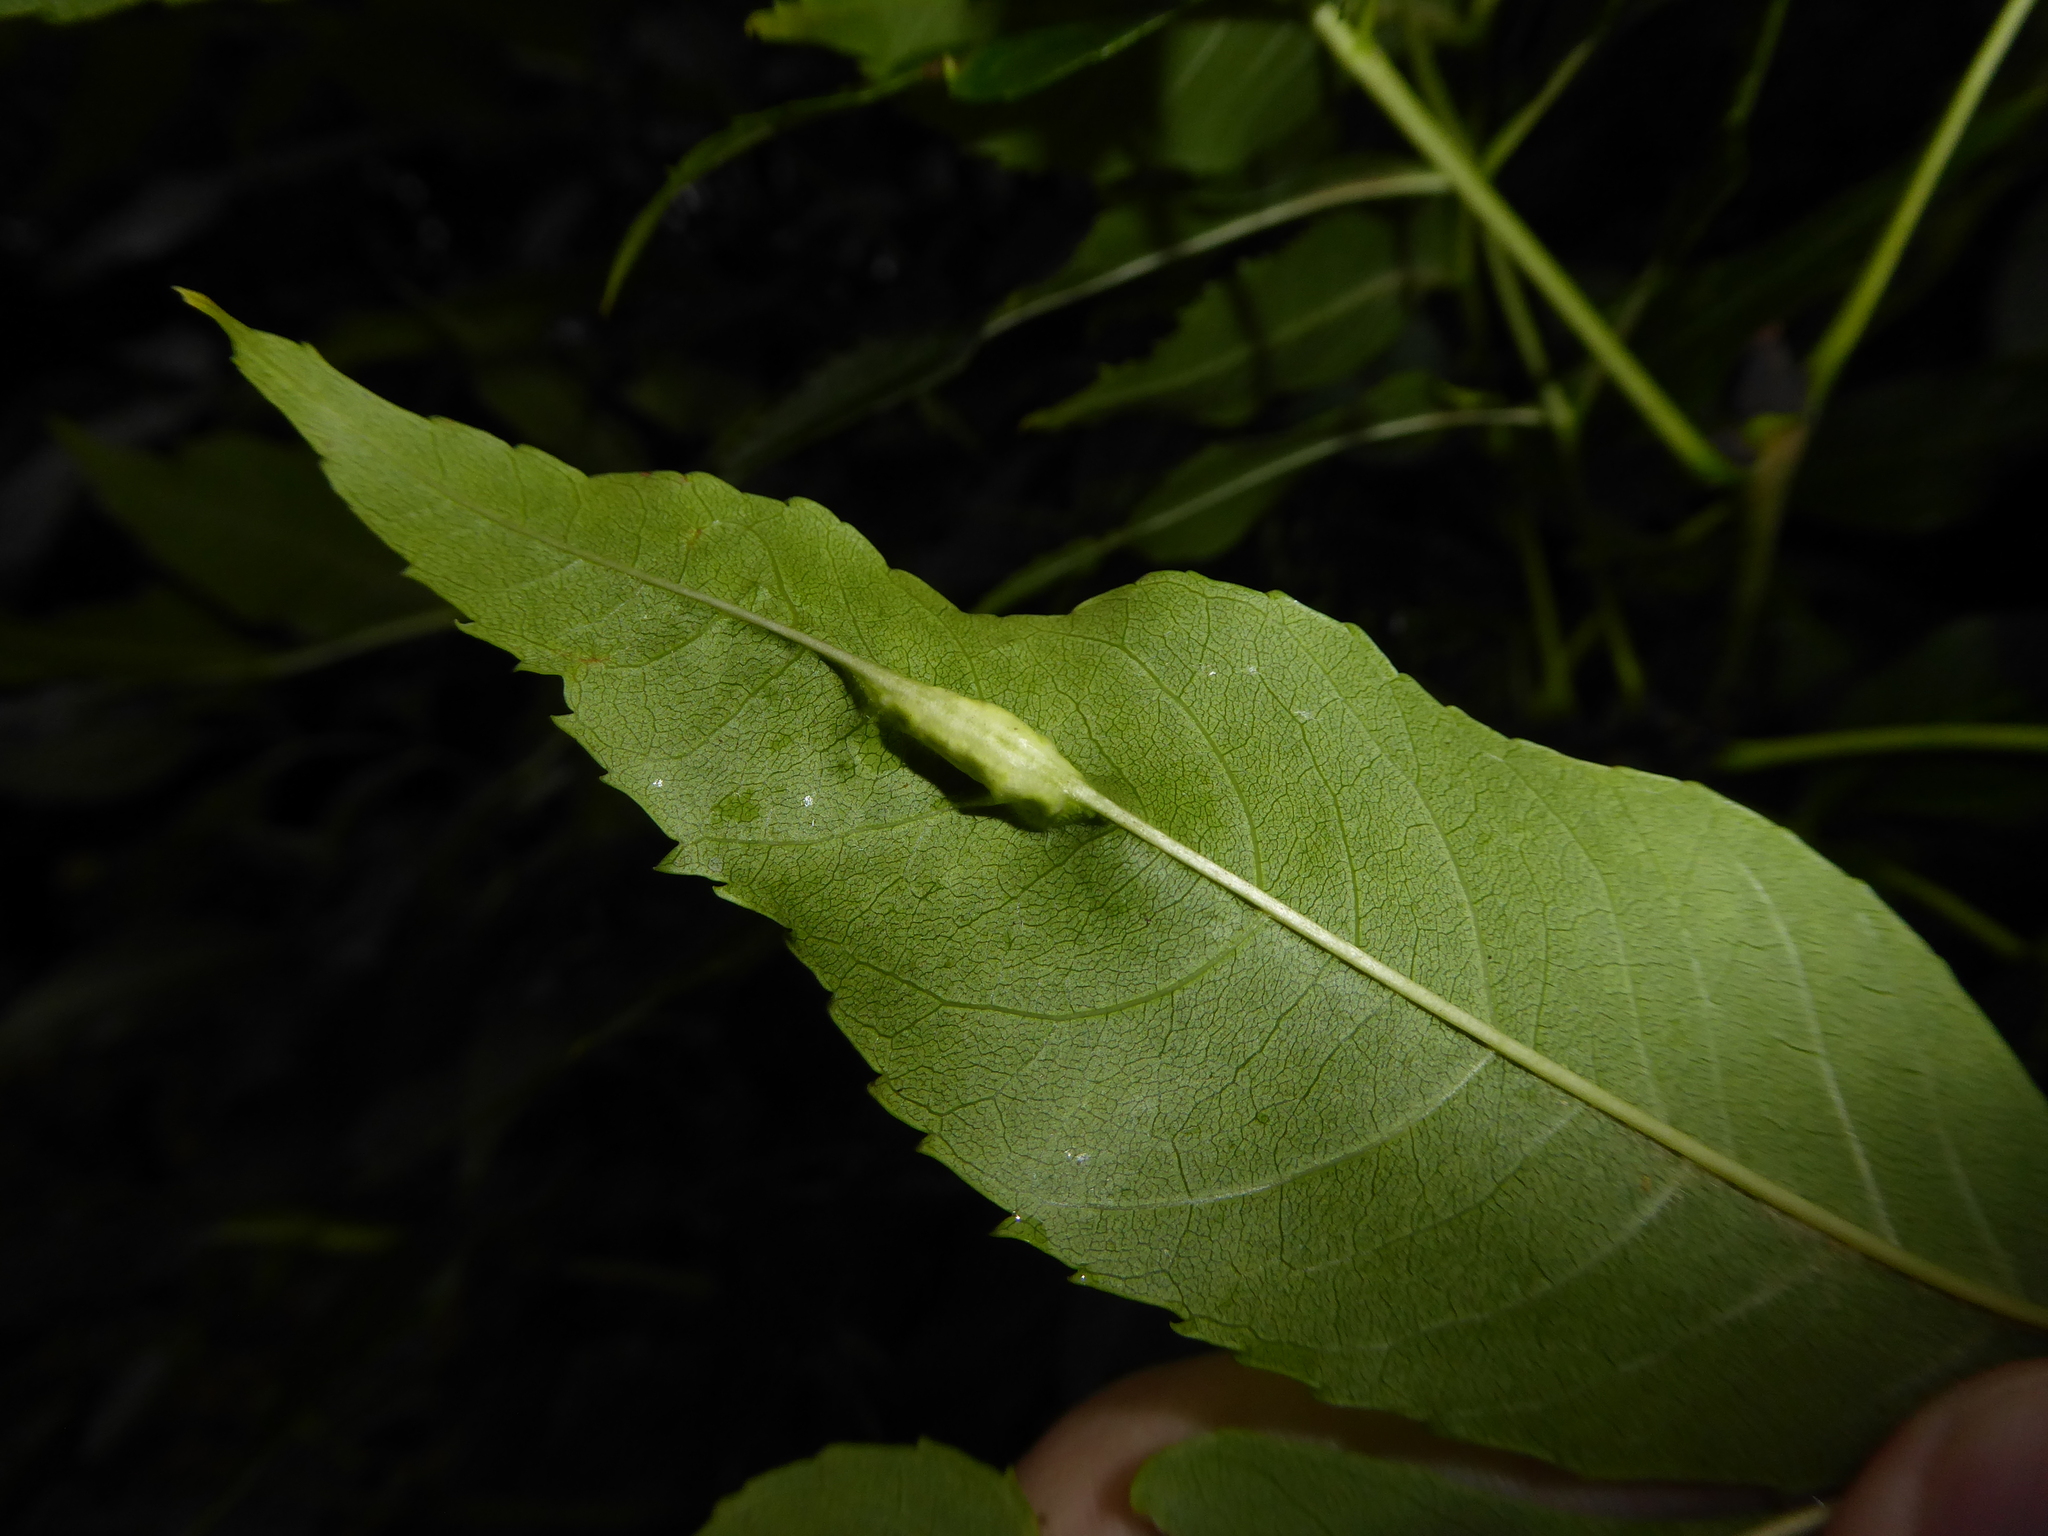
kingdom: Animalia
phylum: Arthropoda
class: Insecta
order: Diptera
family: Cecidomyiidae
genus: Dasineura
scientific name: Dasineura fraxini
